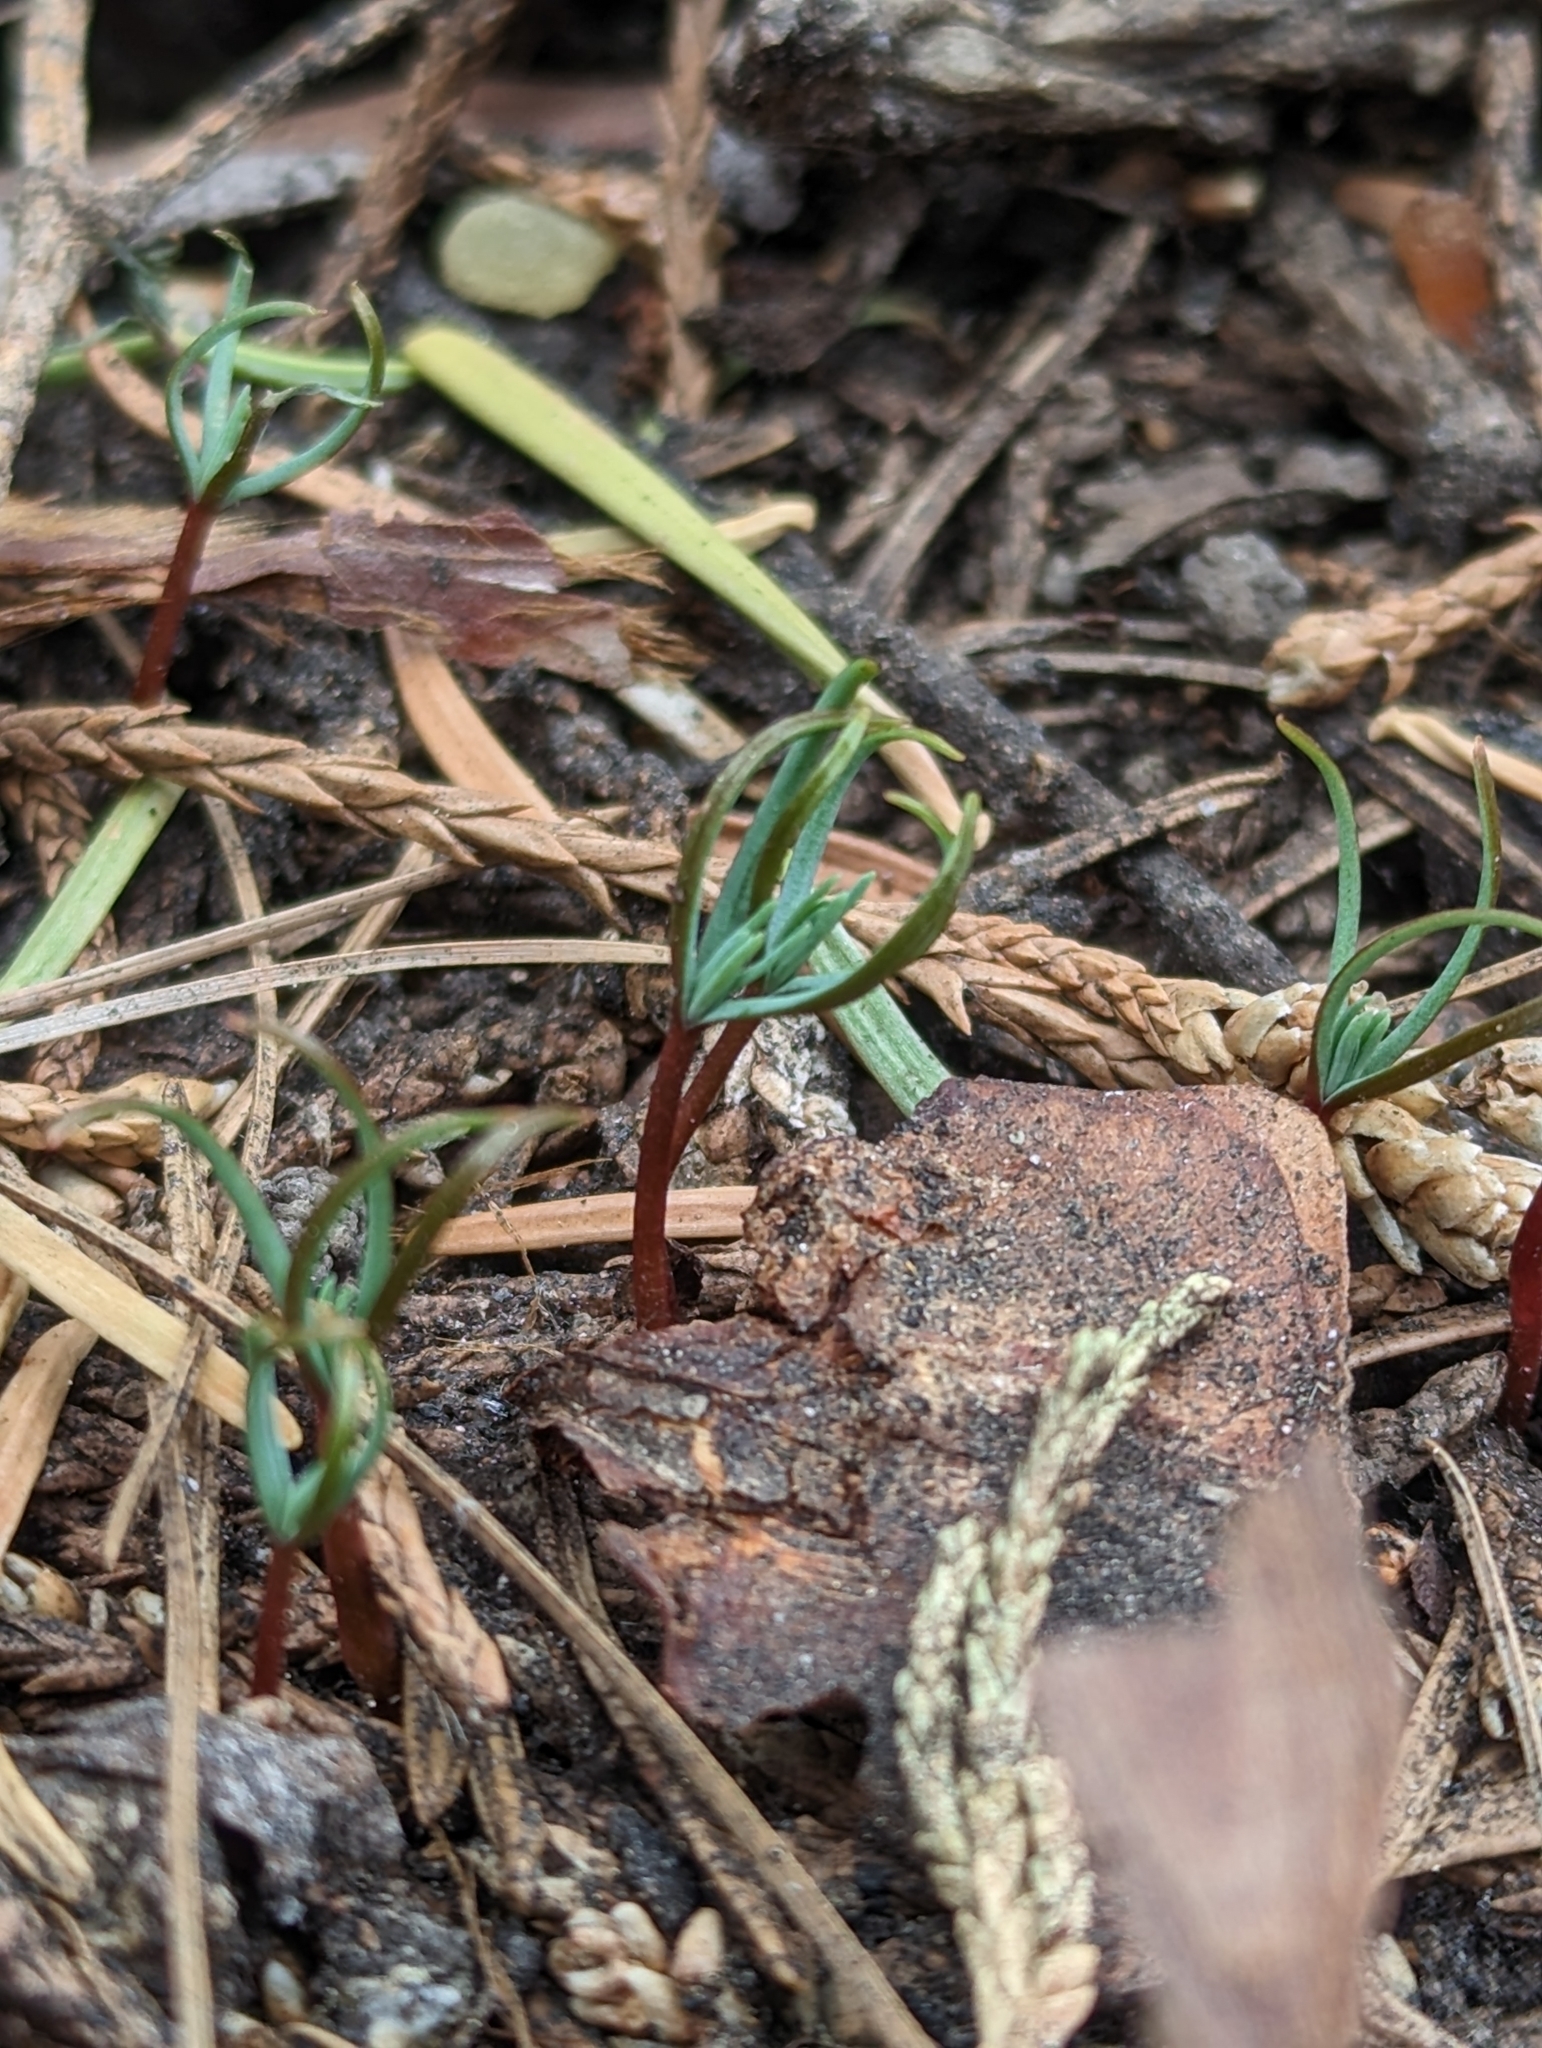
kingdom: Plantae
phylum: Tracheophyta
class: Pinopsida
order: Pinales
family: Cupressaceae
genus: Sequoiadendron
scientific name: Sequoiadendron giganteum
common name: Wellingtonia
